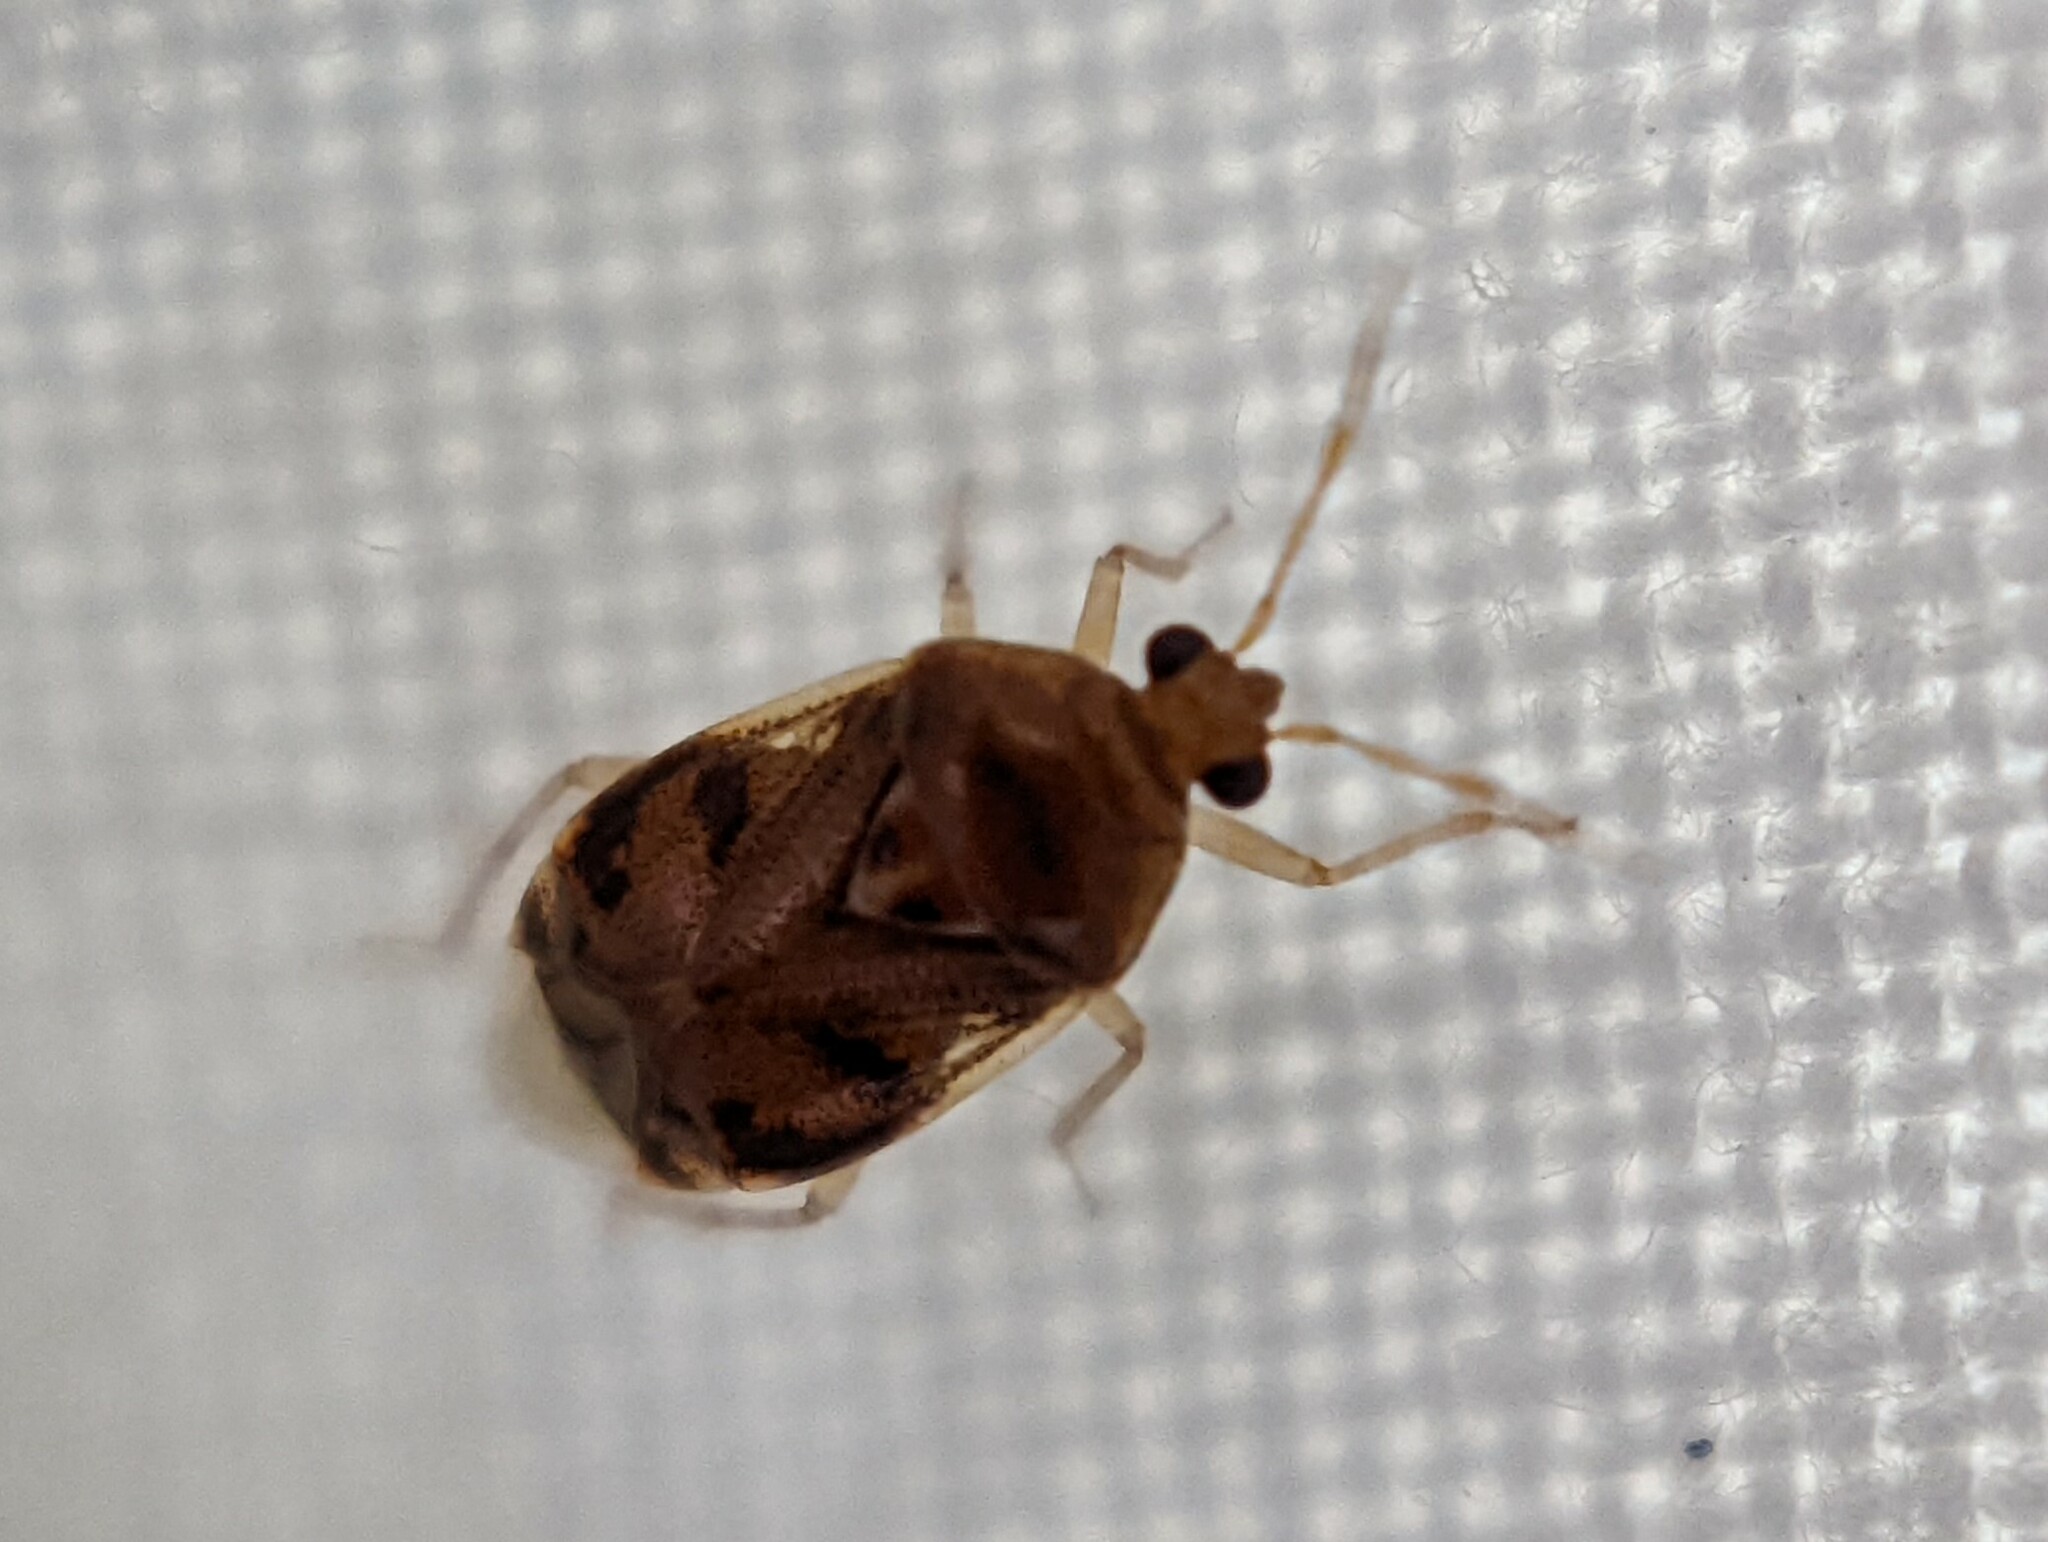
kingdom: Animalia
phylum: Arthropoda
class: Insecta
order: Hemiptera
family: Miridae
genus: Deraeocoris
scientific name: Deraeocoris lutescens
